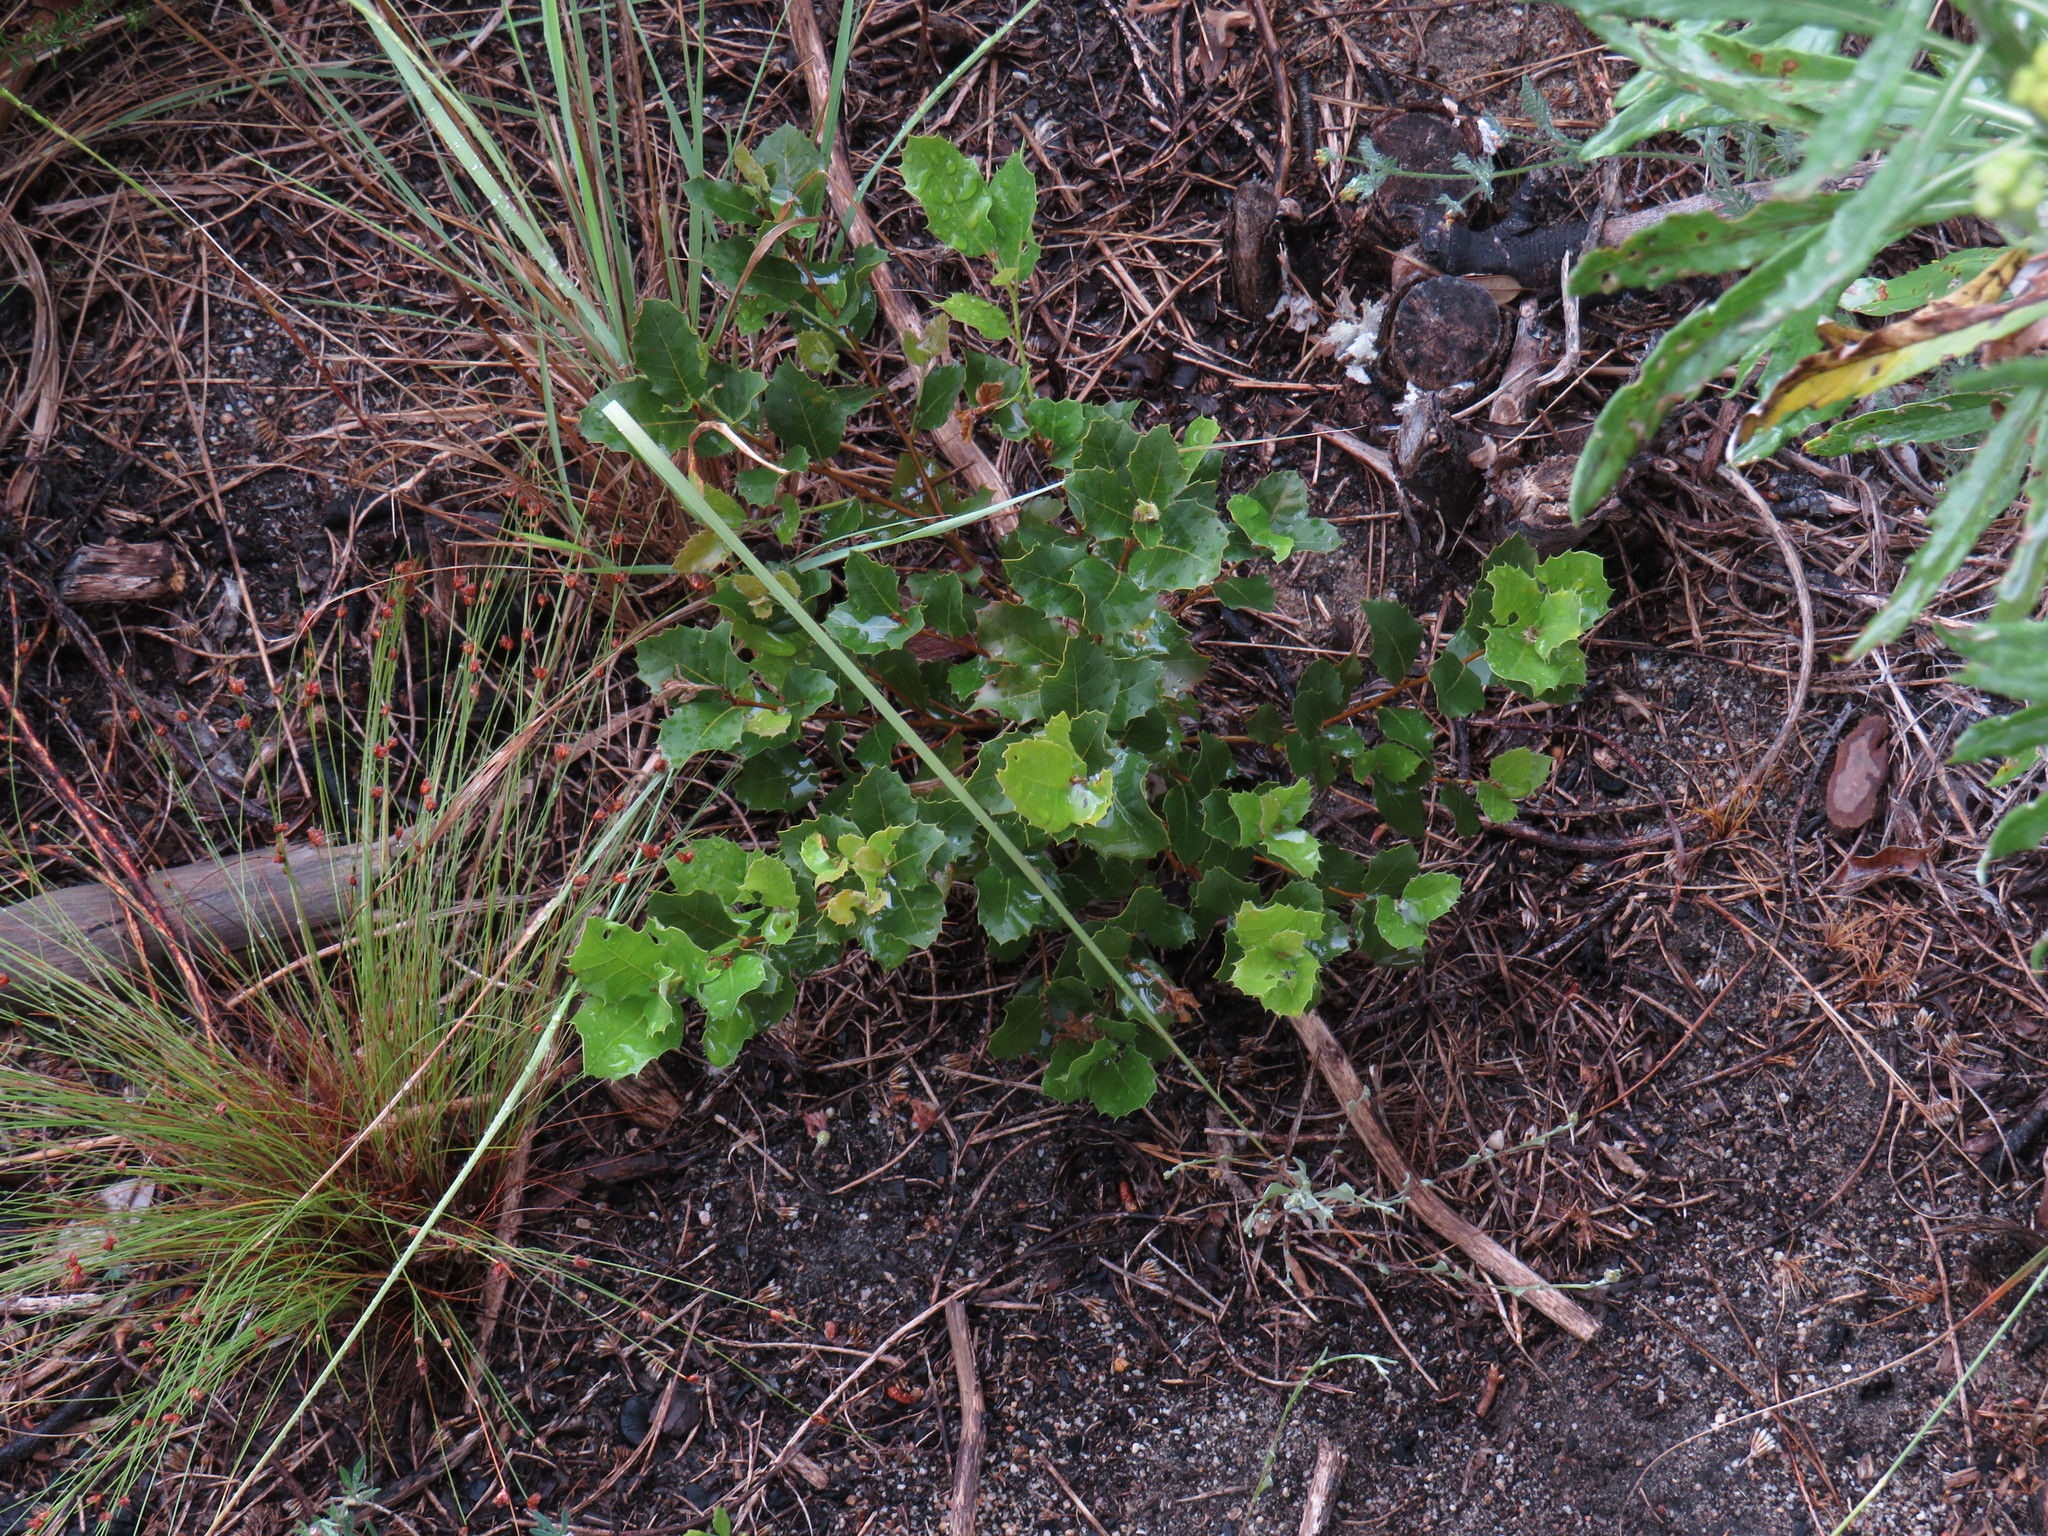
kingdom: Plantae
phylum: Tracheophyta
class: Magnoliopsida
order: Fagales
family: Fagaceae
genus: Quercus
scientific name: Quercus ilex
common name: Evergreen oak
